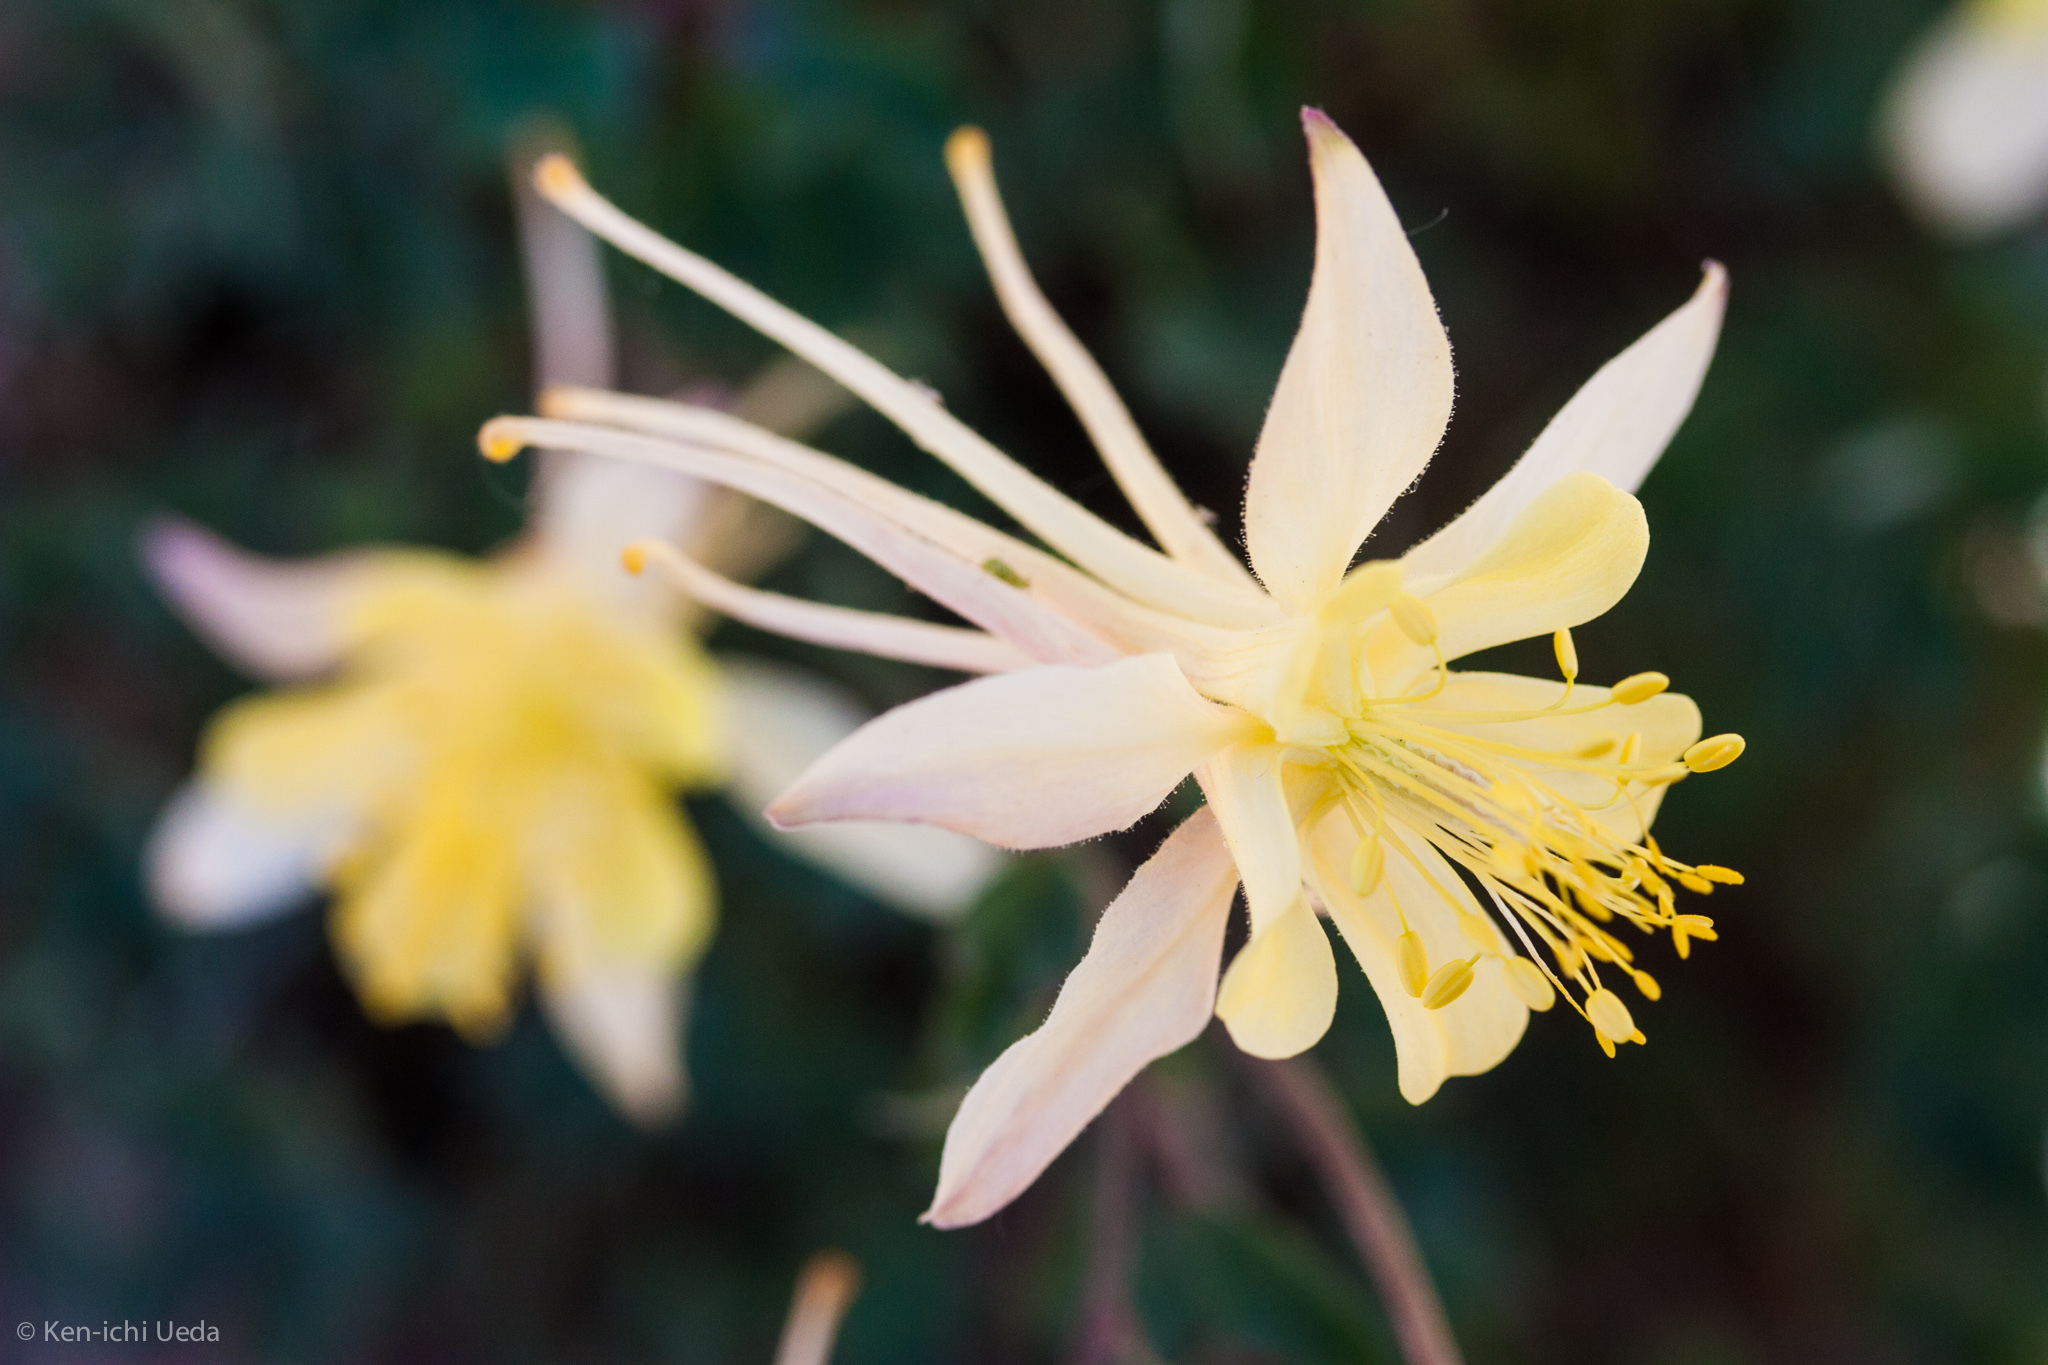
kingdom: Plantae
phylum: Tracheophyta
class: Magnoliopsida
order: Ranunculales
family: Ranunculaceae
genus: Aquilegia
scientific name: Aquilegia pubescens
